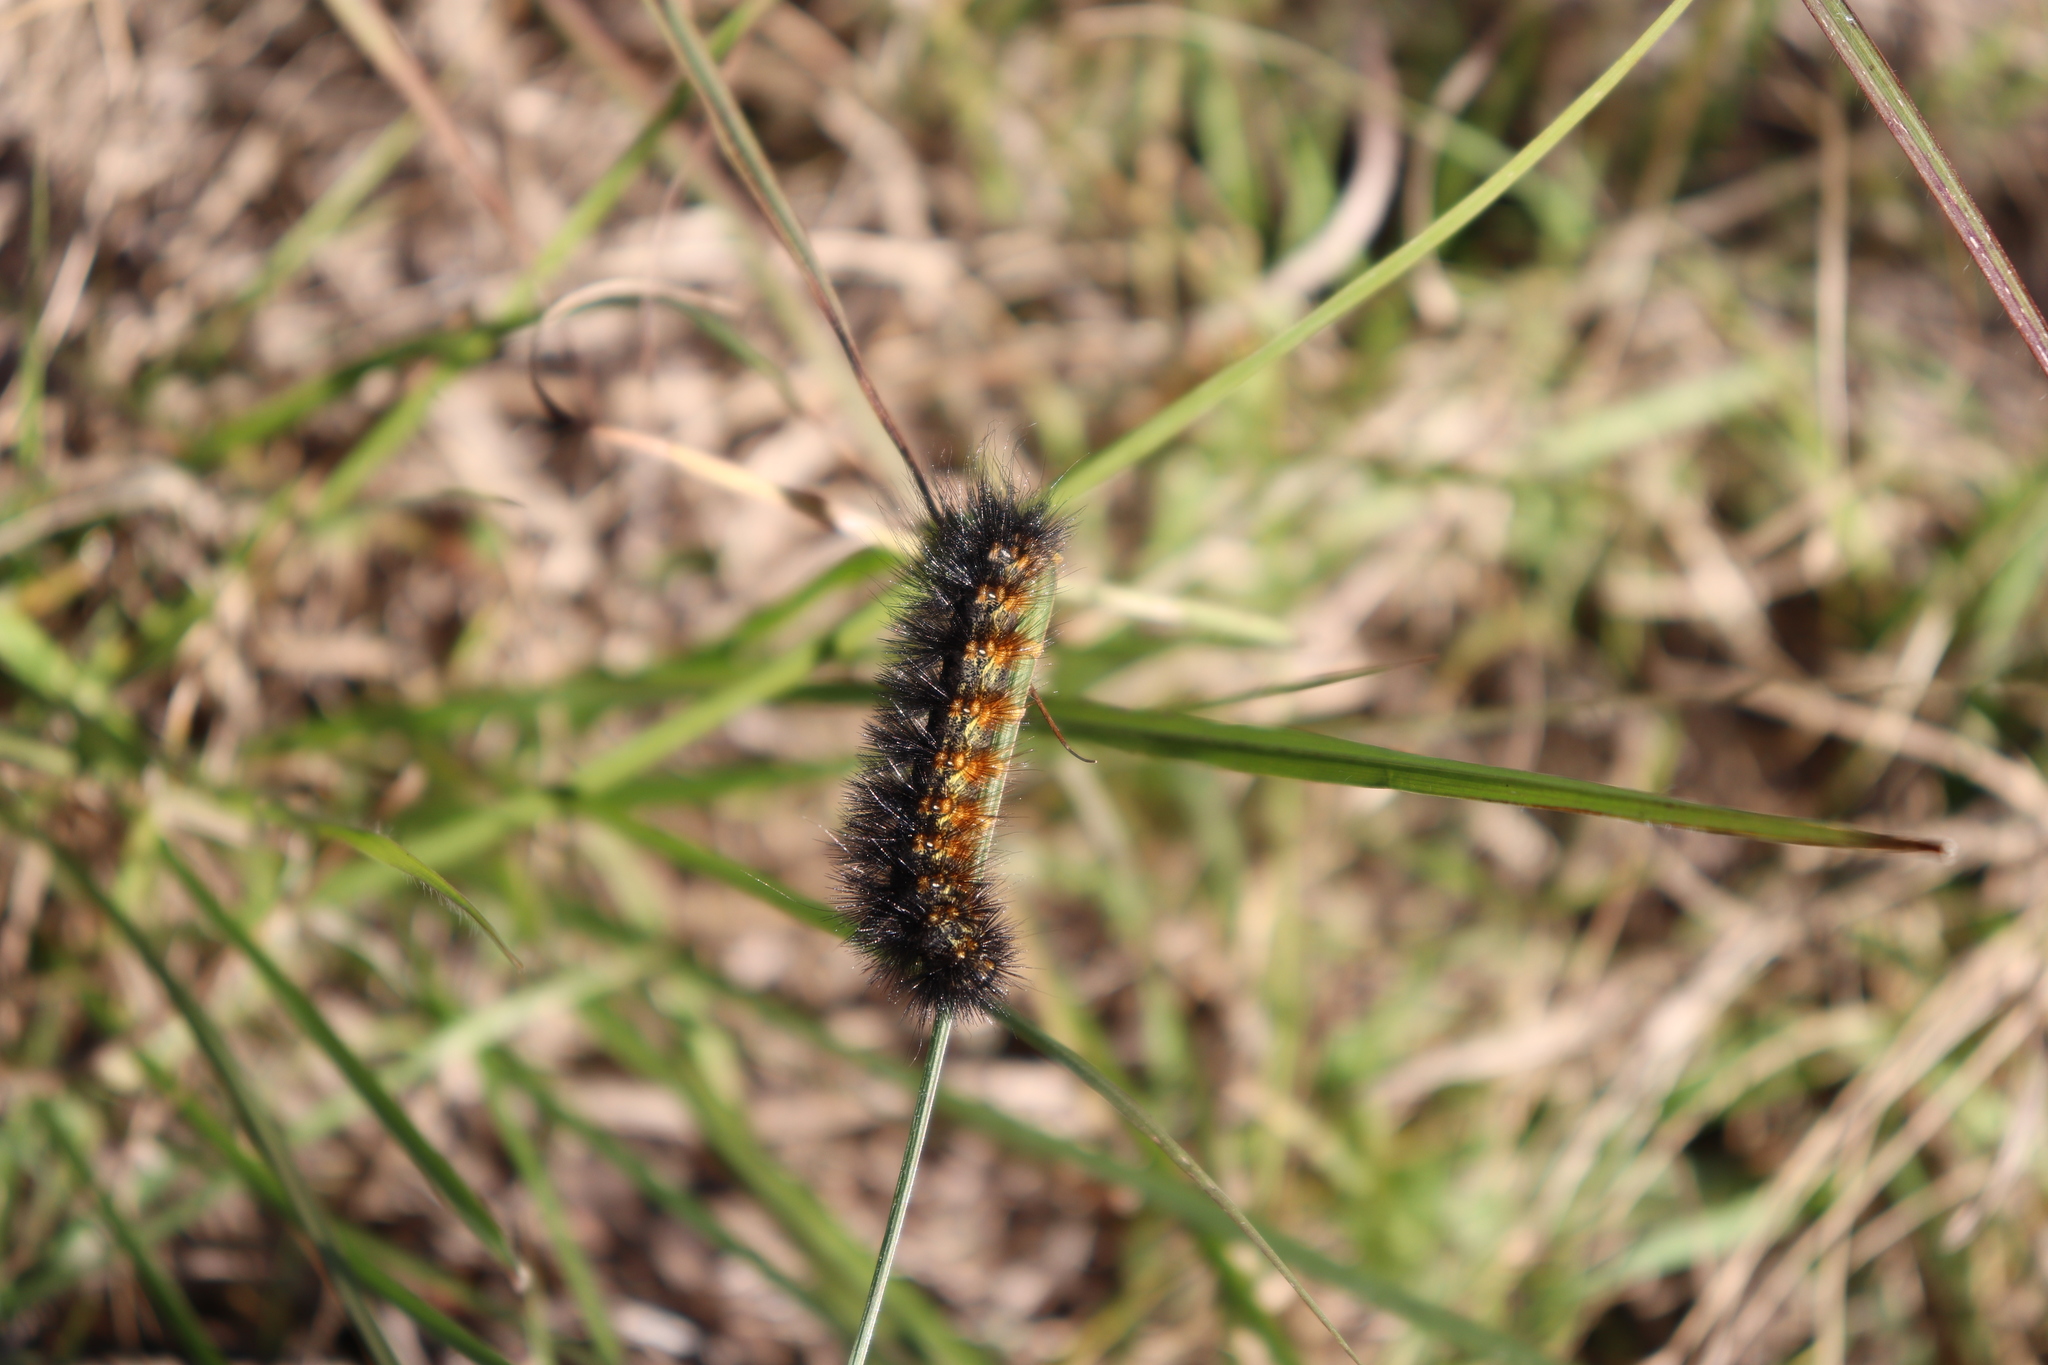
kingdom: Animalia
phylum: Arthropoda
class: Insecta
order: Lepidoptera
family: Erebidae
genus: Estigmene
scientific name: Estigmene acrea
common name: Salt marsh moth
